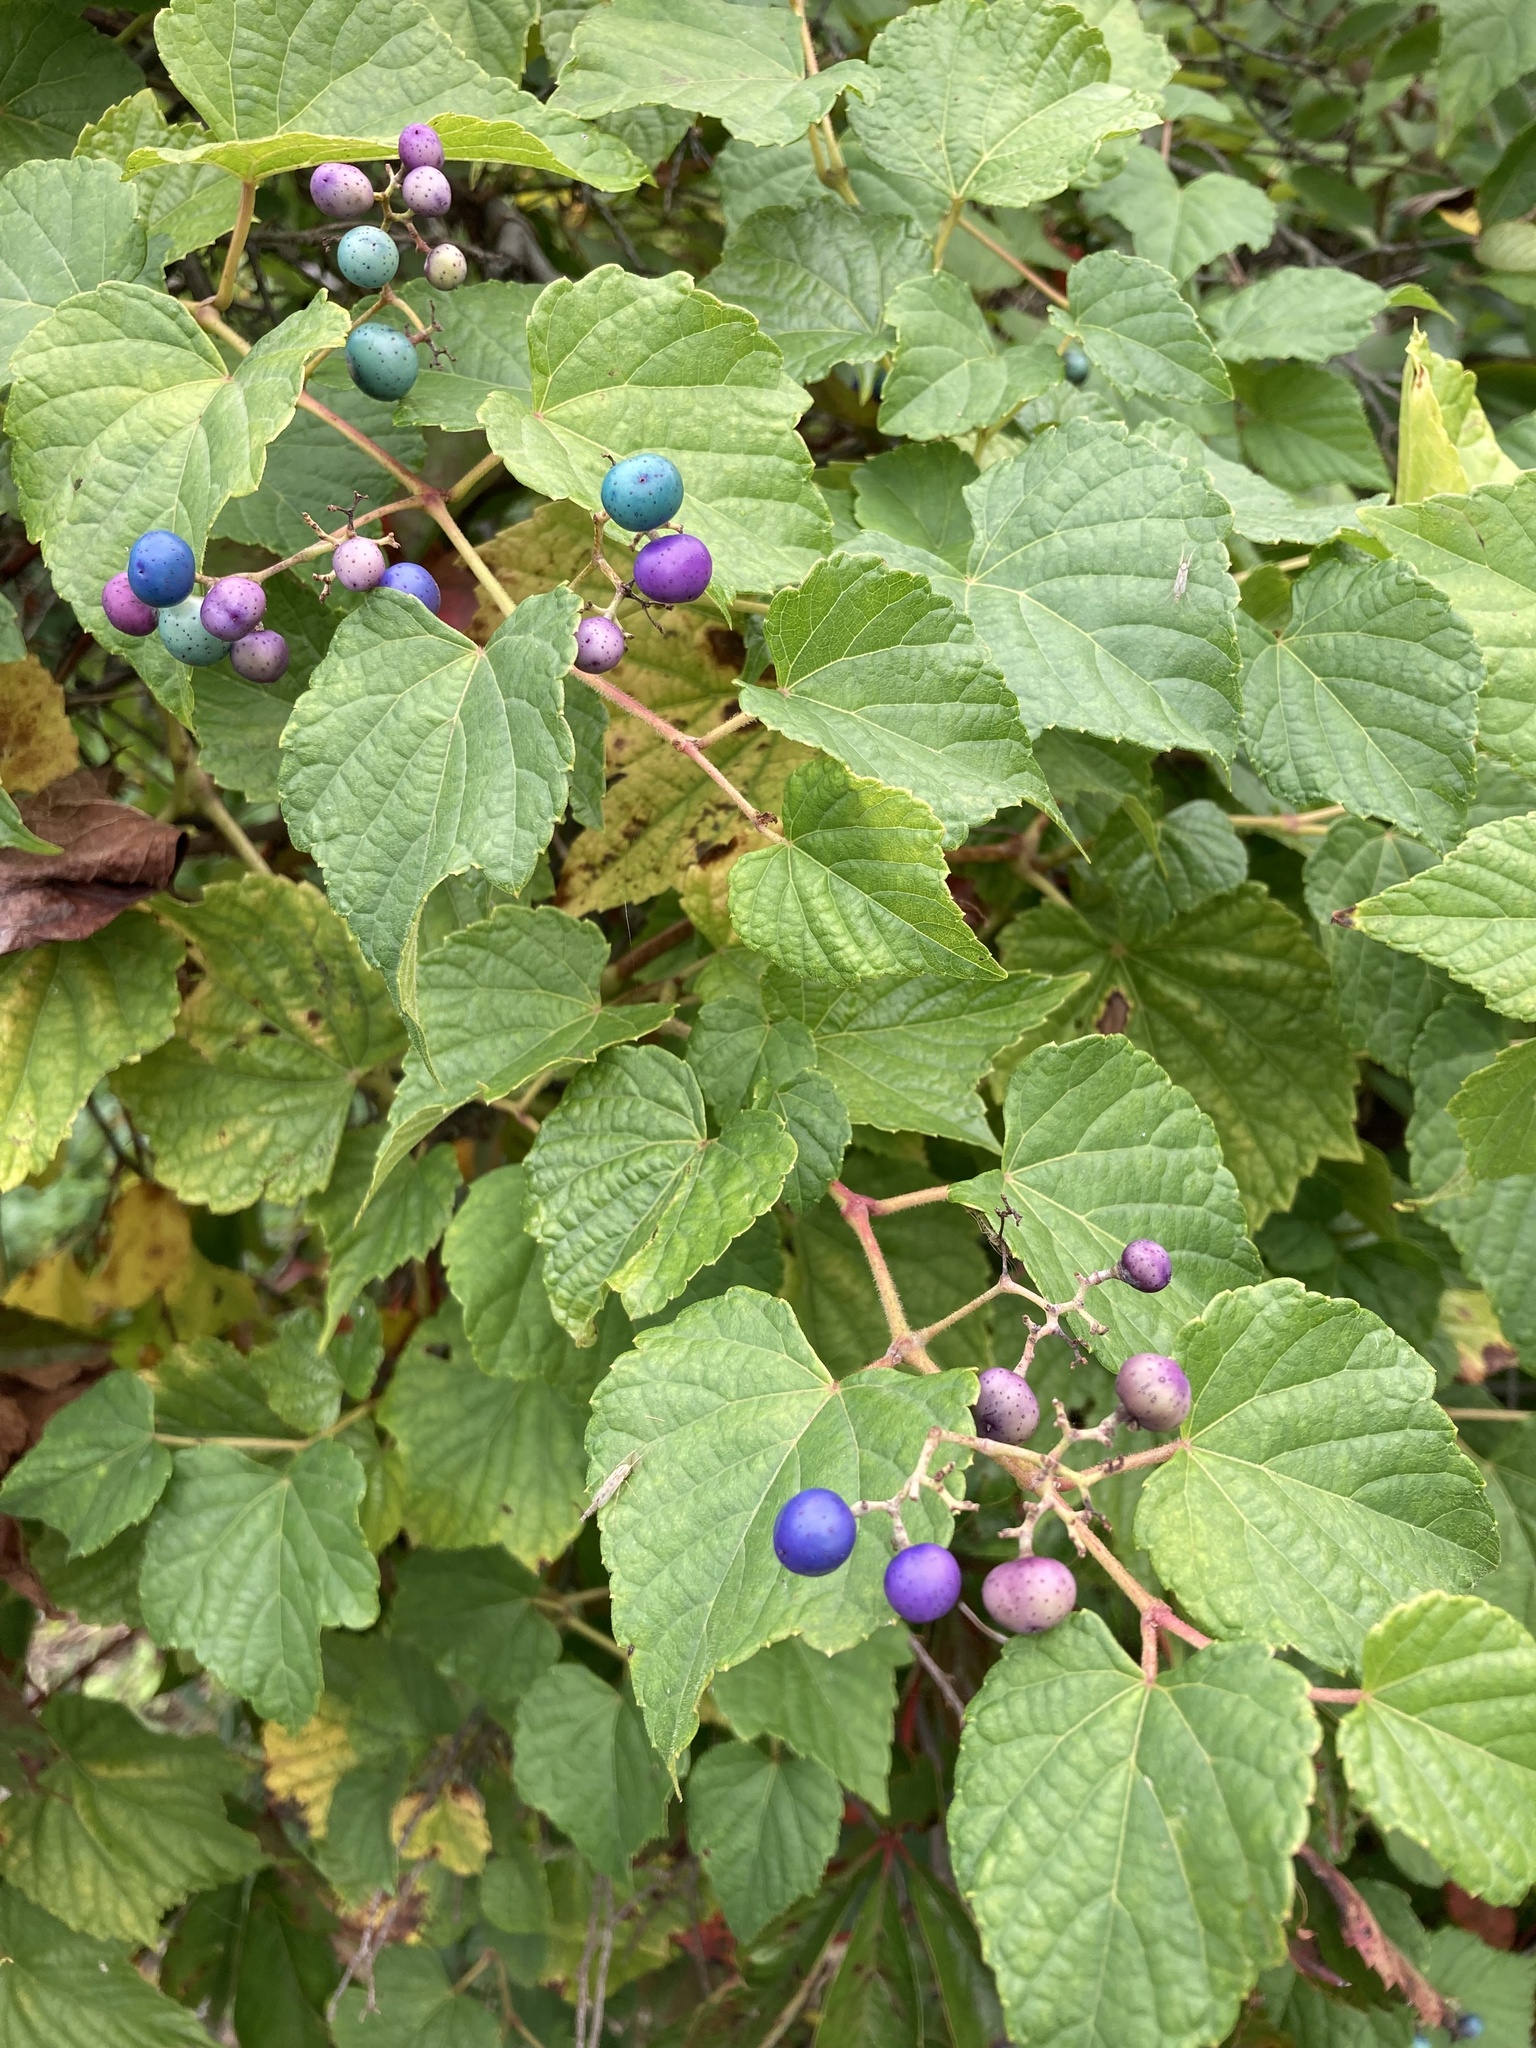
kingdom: Plantae
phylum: Tracheophyta
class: Magnoliopsida
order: Vitales
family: Vitaceae
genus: Ampelopsis
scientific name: Ampelopsis glandulosa
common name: Amur peppervine
